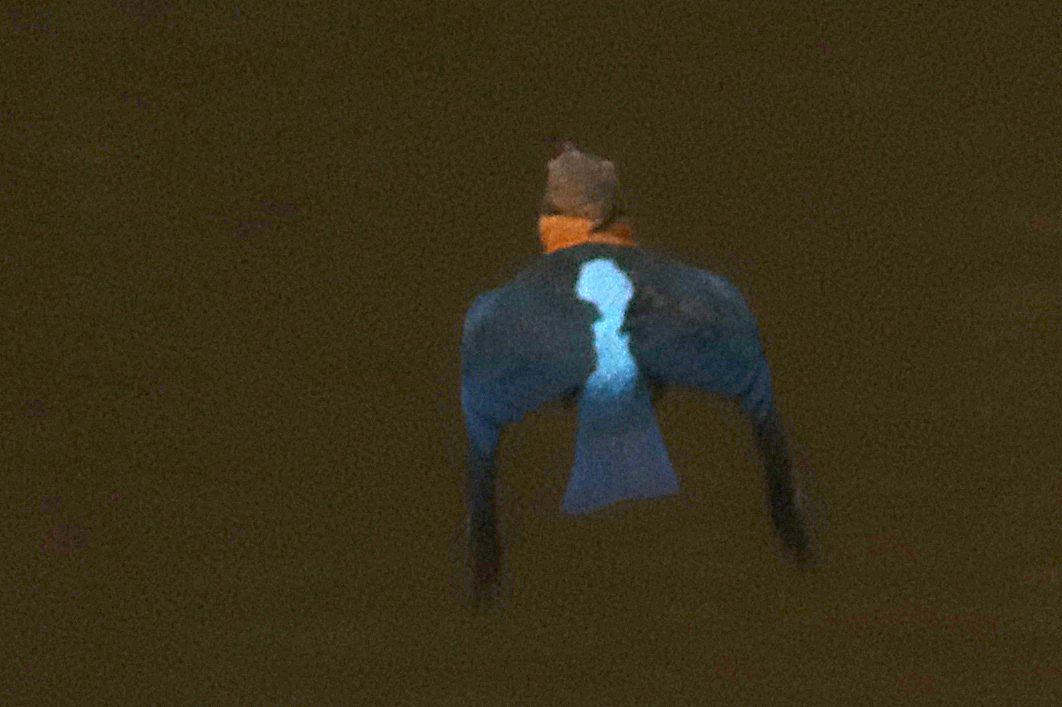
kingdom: Animalia
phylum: Chordata
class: Aves
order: Coraciiformes
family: Alcedinidae
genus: Pelargopsis
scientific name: Pelargopsis capensis
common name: Stork-billed kingfisher
